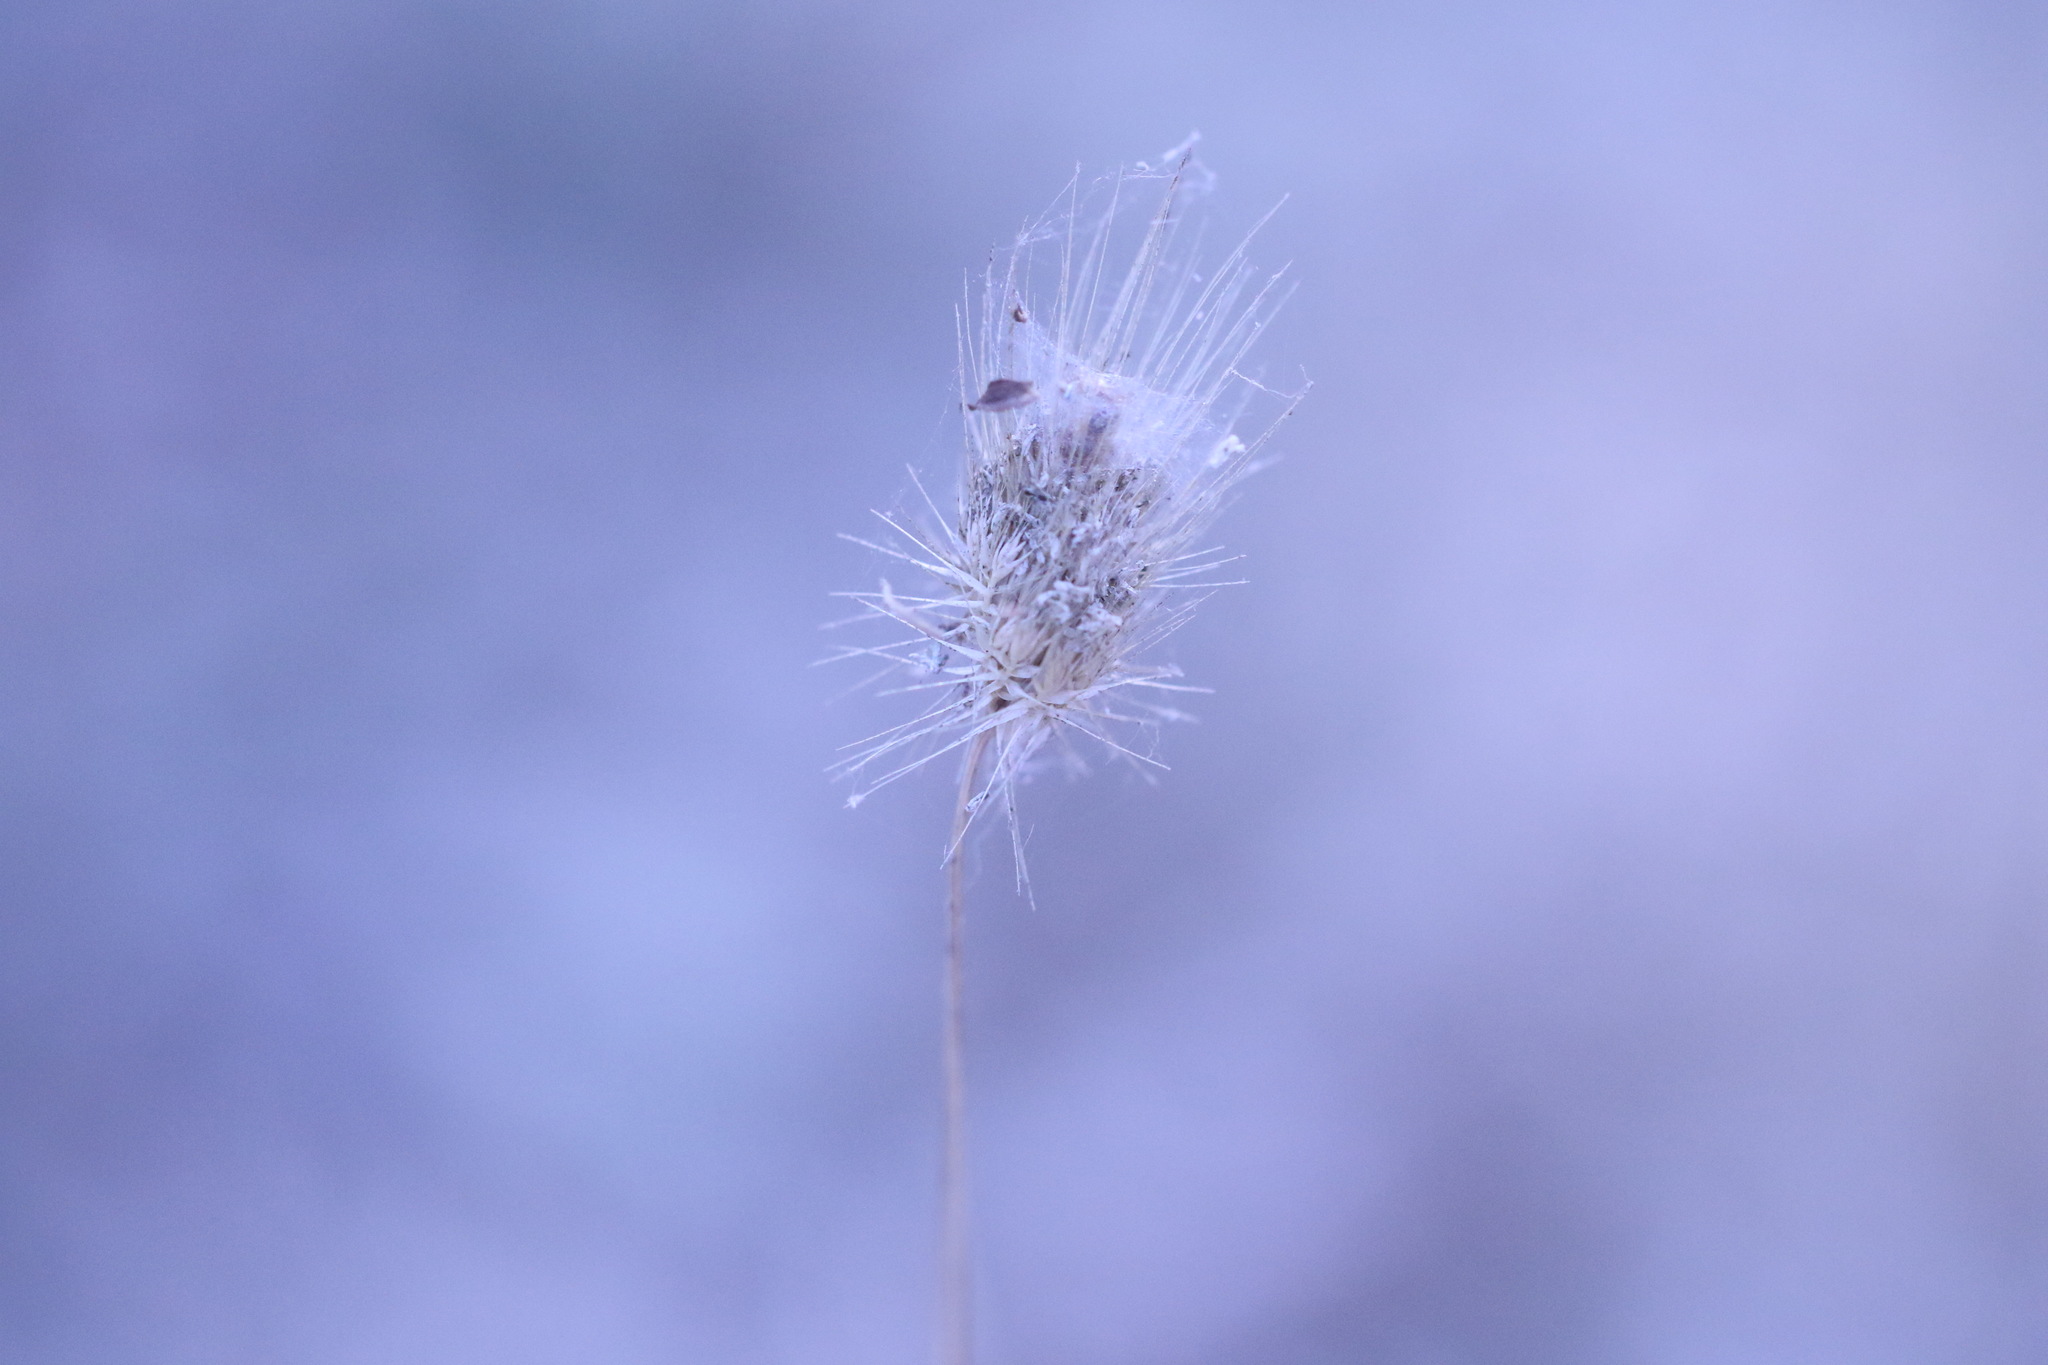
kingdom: Plantae
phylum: Tracheophyta
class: Liliopsida
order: Poales
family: Poaceae
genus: Cynosurus
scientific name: Cynosurus echinatus
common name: Rough dog's-tail
